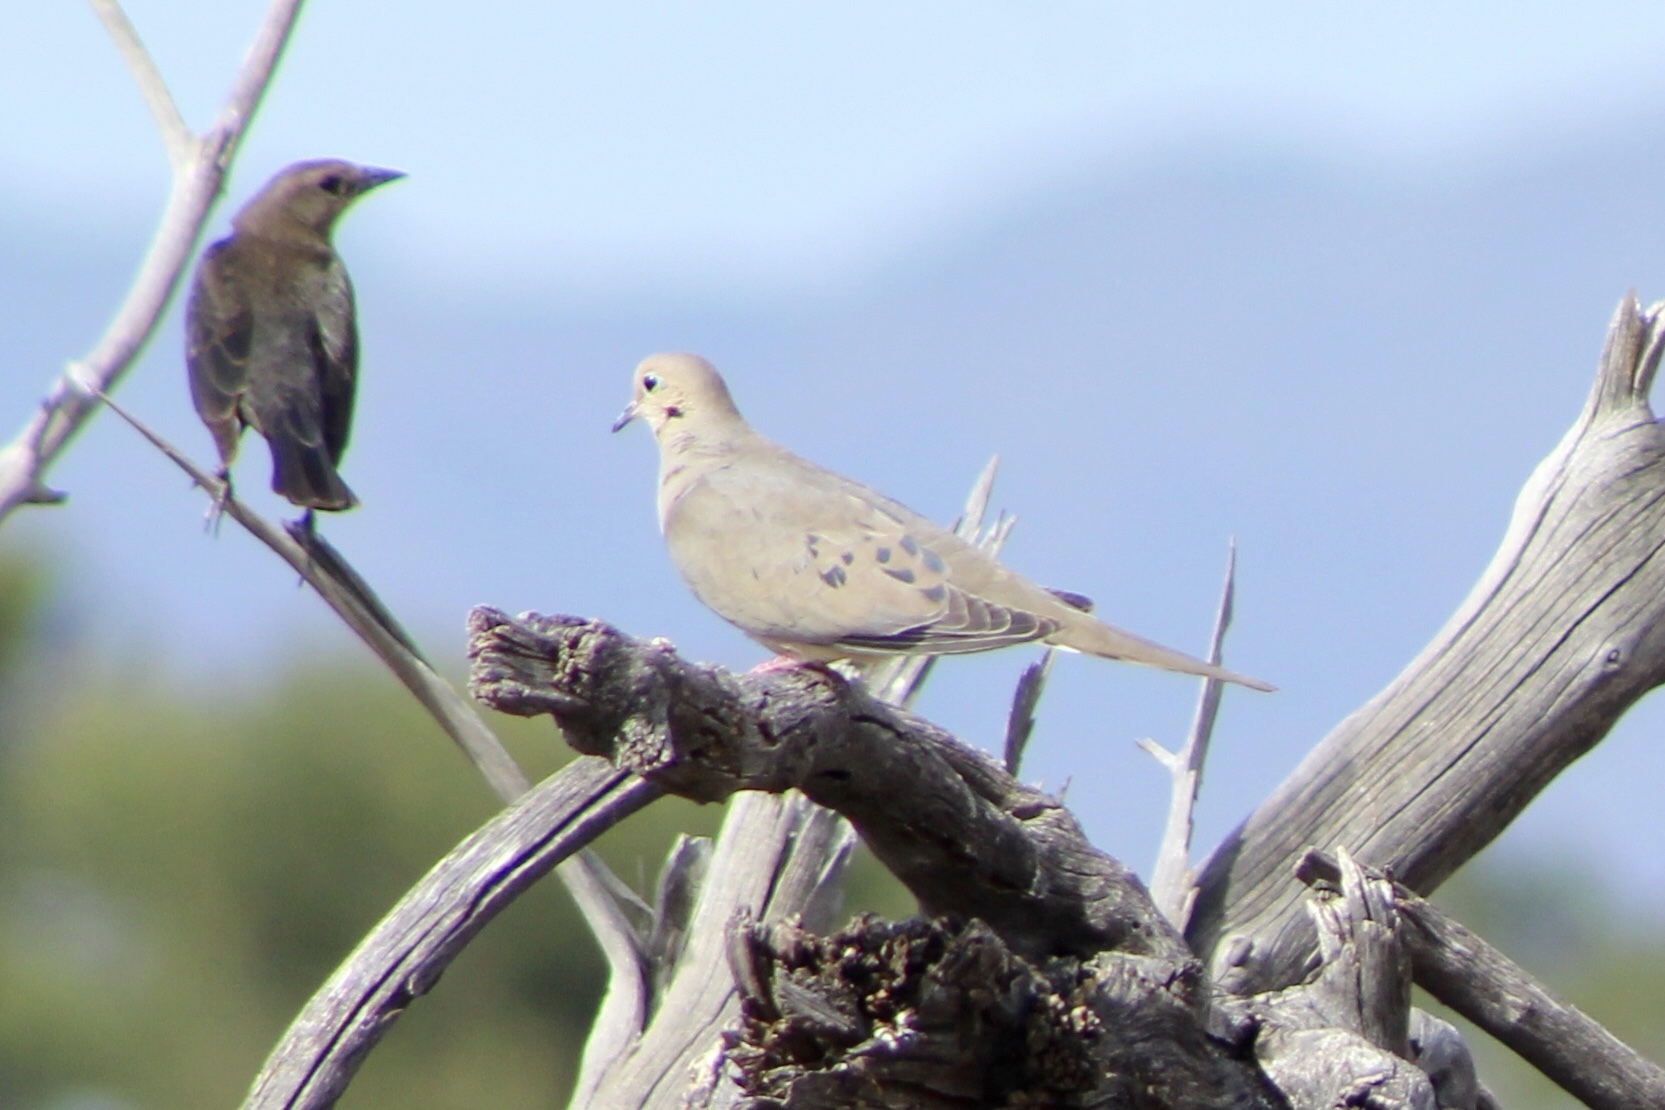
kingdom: Animalia
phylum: Chordata
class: Aves
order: Columbiformes
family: Columbidae
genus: Zenaida
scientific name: Zenaida macroura
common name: Mourning dove
